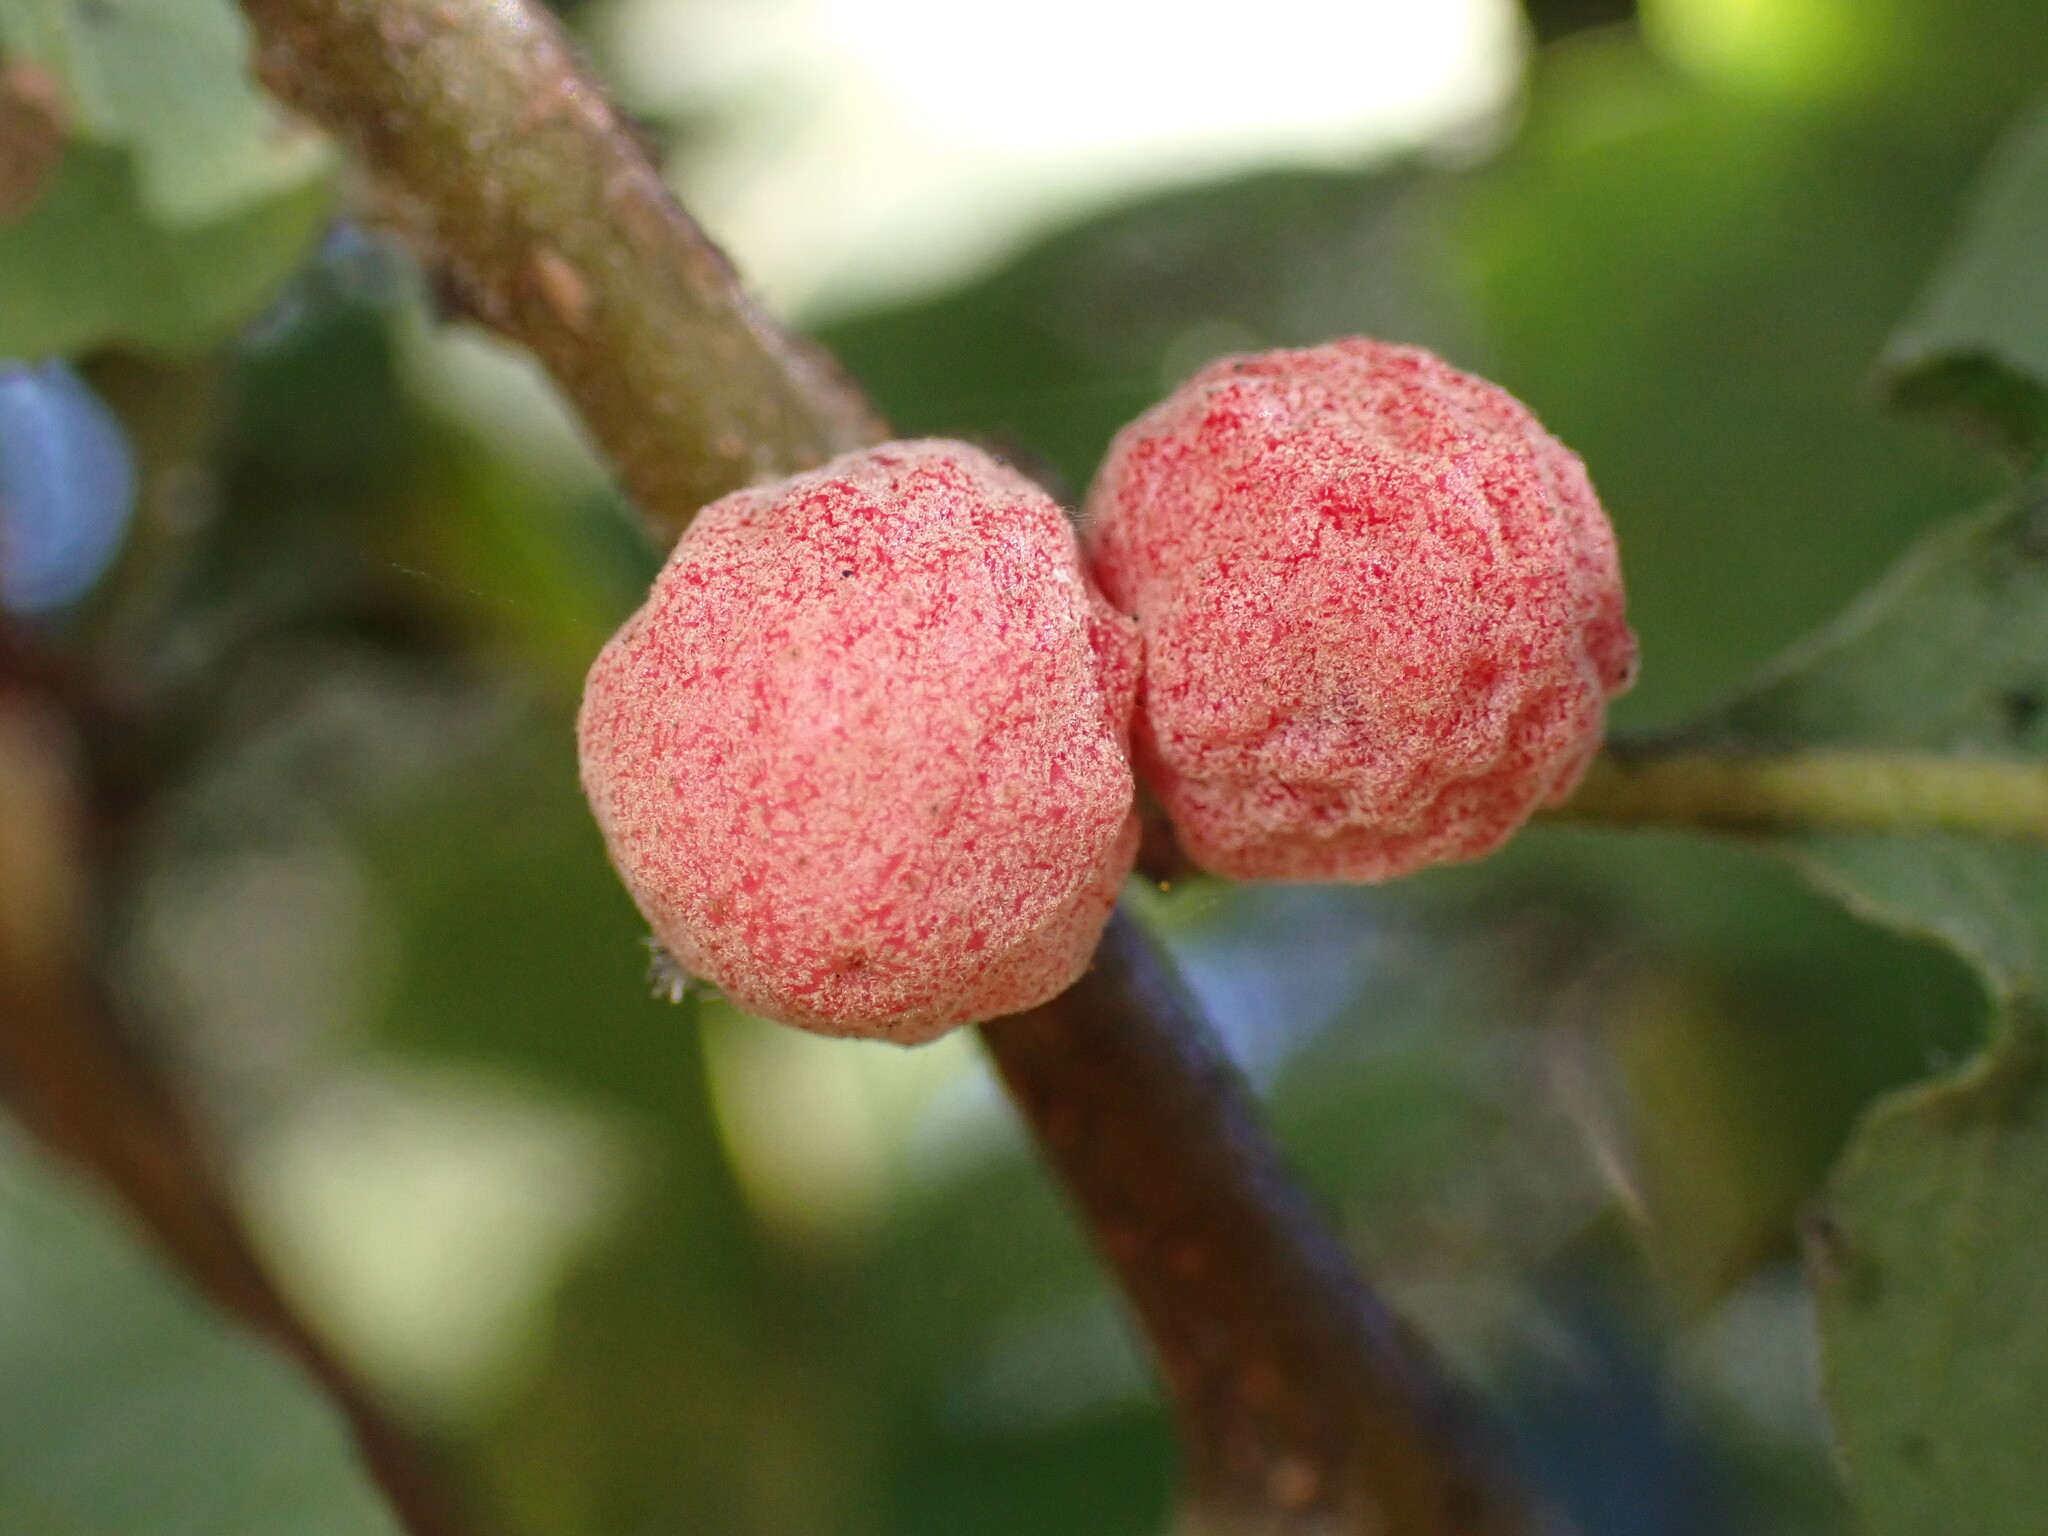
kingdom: Animalia
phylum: Arthropoda
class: Insecta
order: Hymenoptera
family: Cynipidae
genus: Cynips
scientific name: Cynips conspicua
